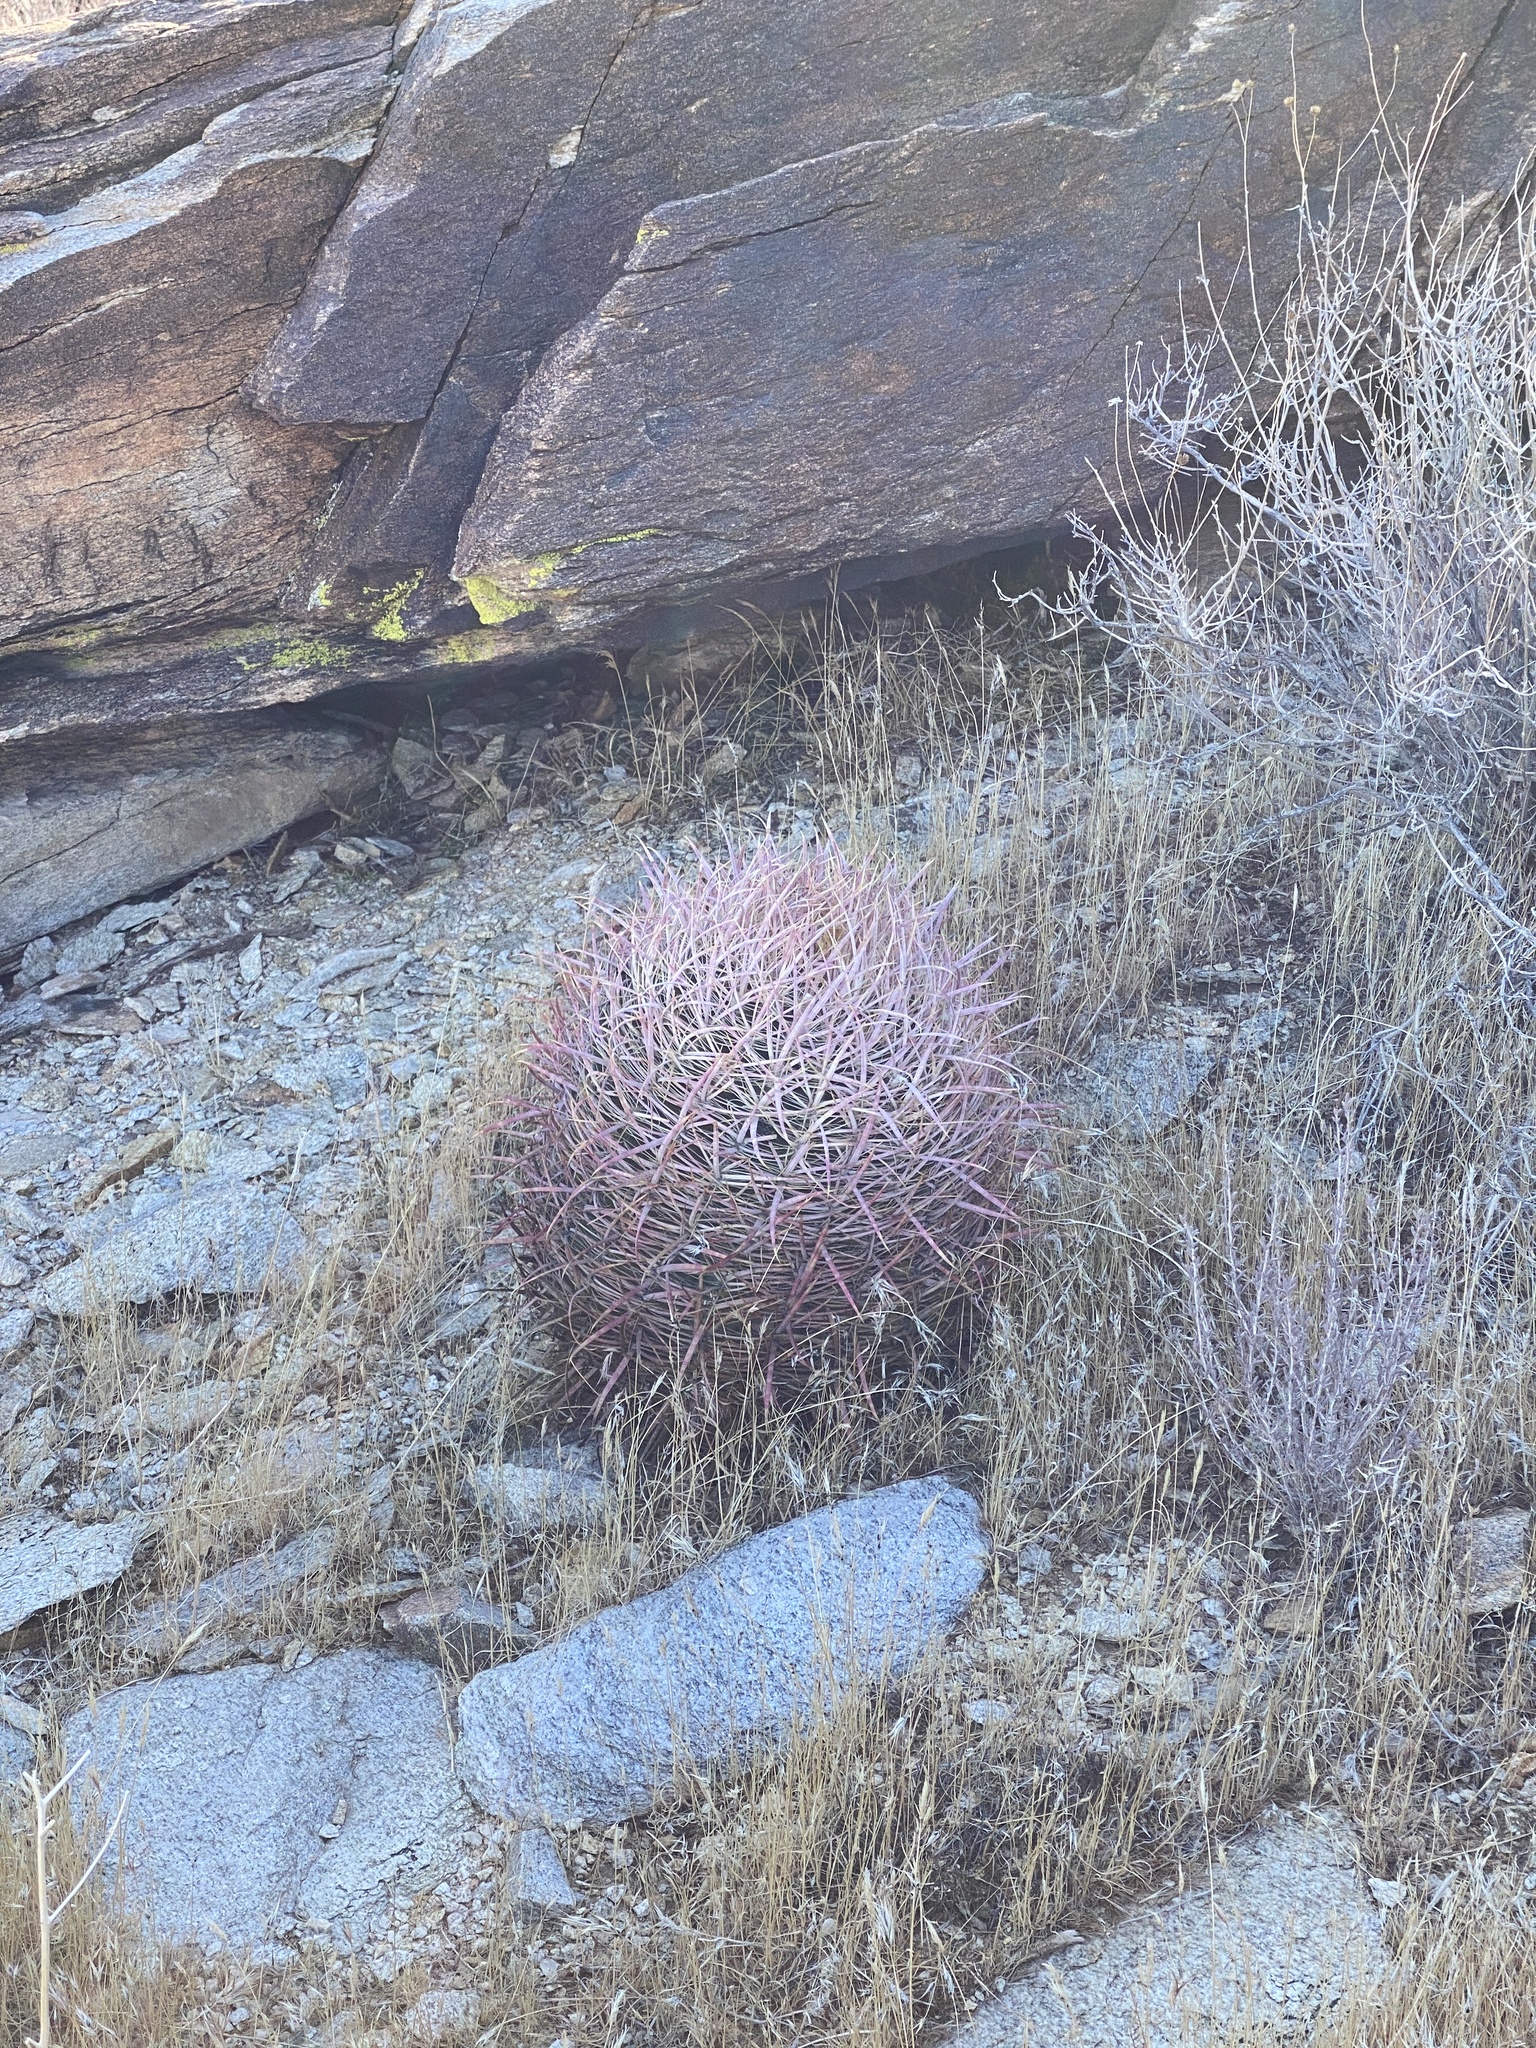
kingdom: Plantae
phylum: Tracheophyta
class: Magnoliopsida
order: Caryophyllales
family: Cactaceae
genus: Ferocactus
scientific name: Ferocactus cylindraceus
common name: California barrel cactus
